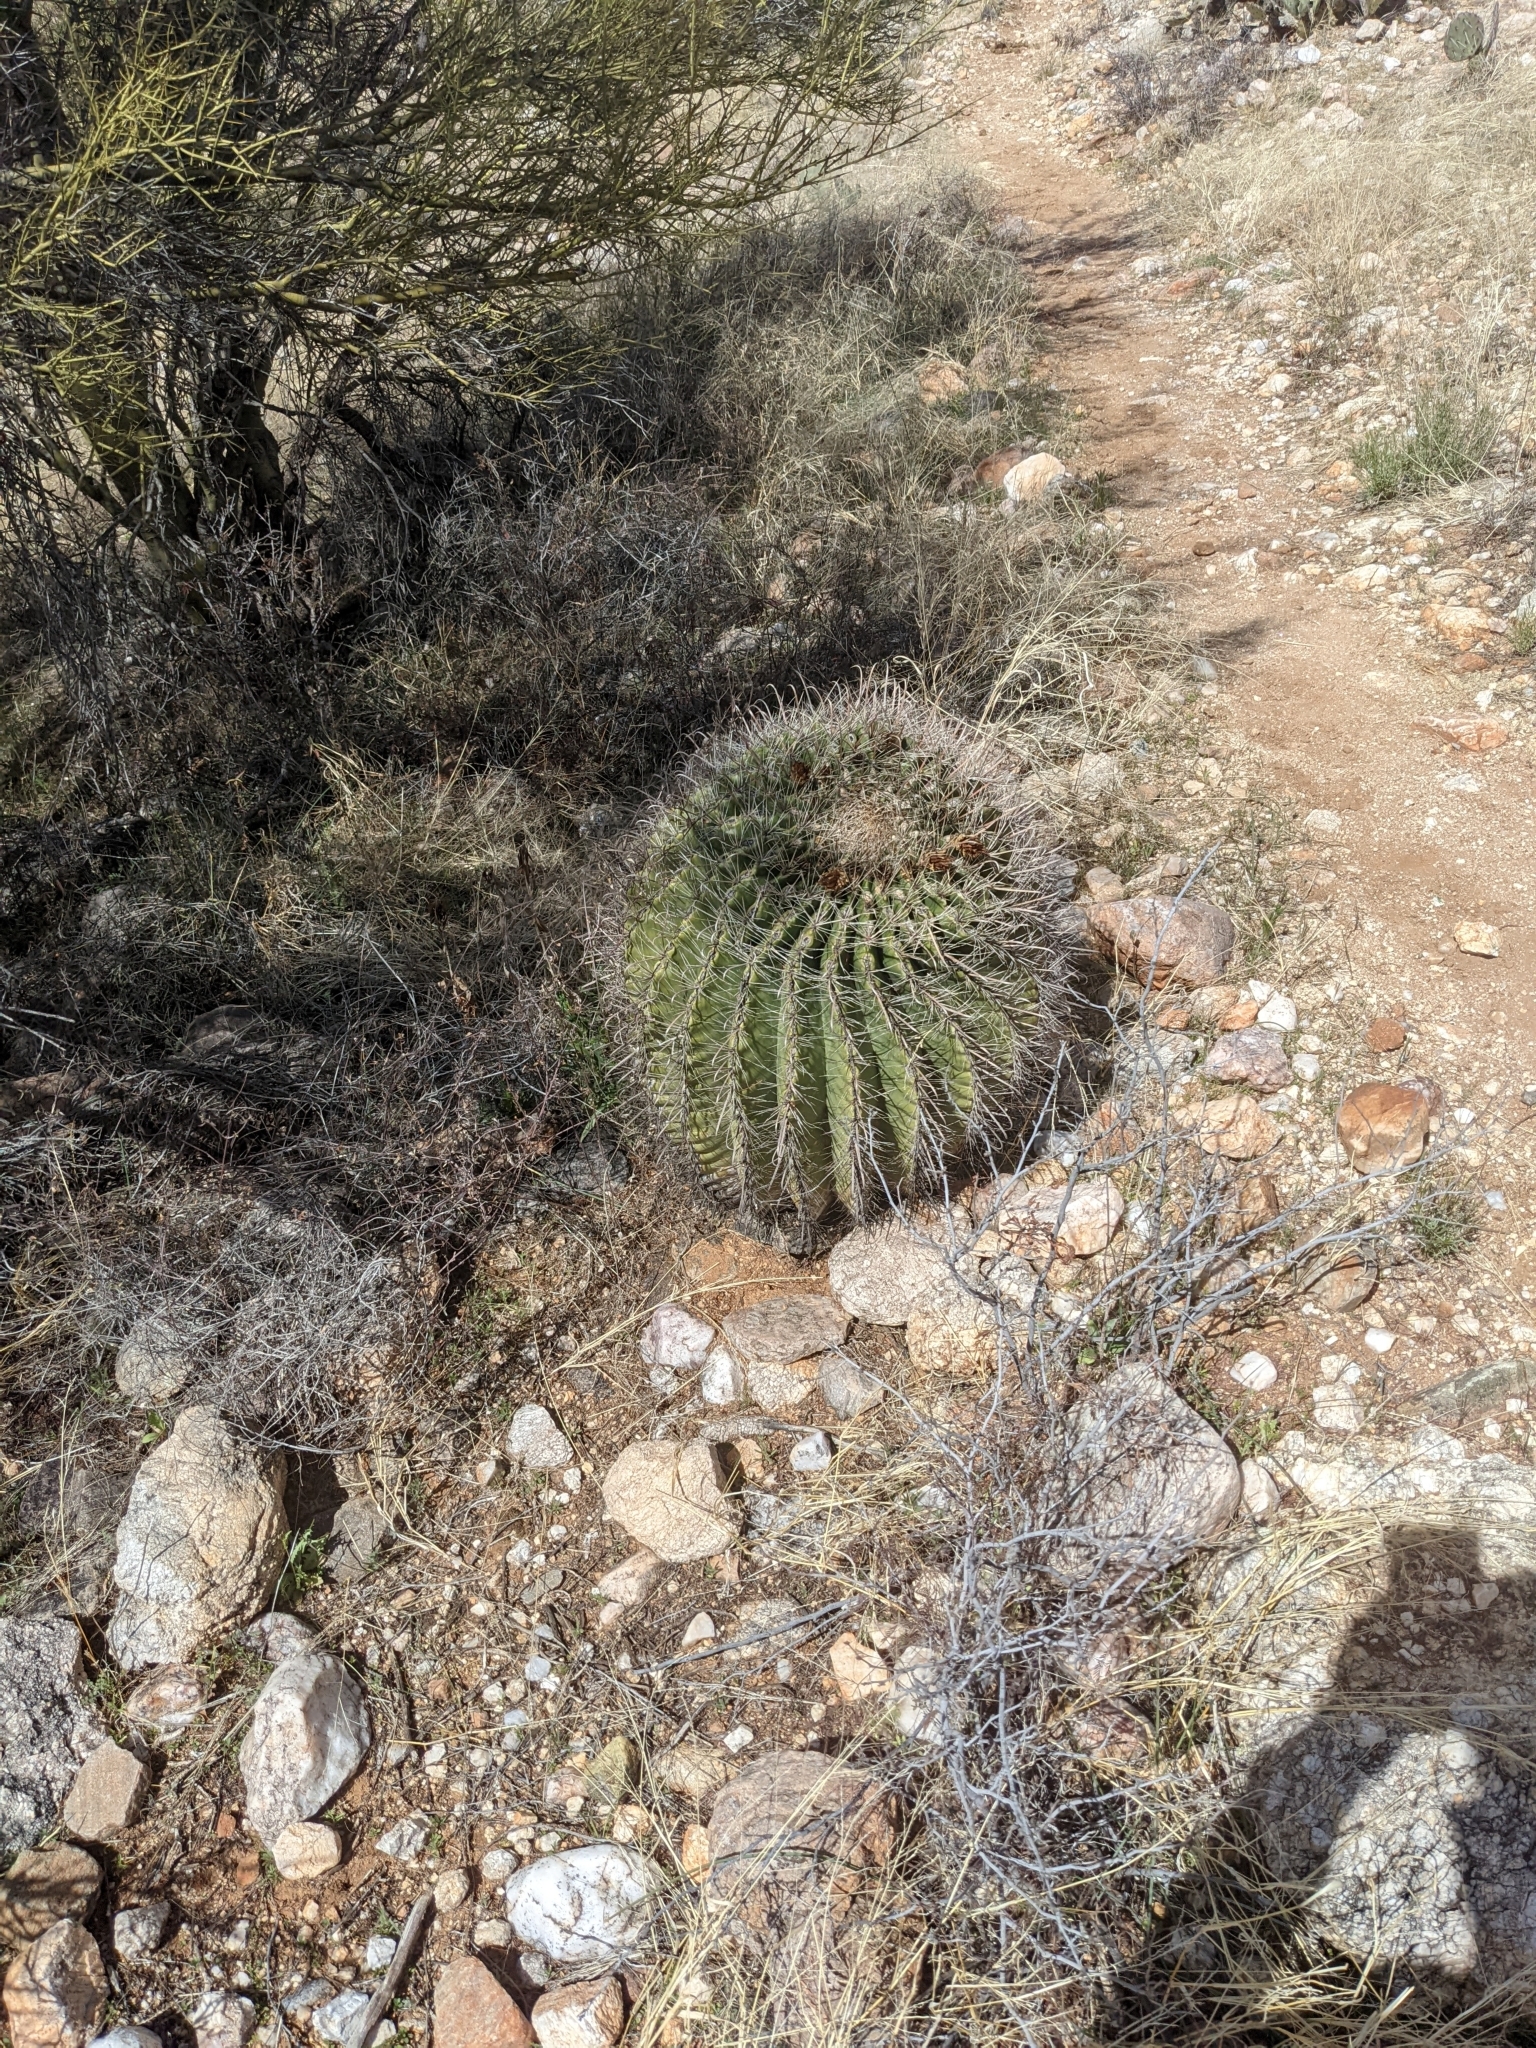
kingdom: Plantae
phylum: Tracheophyta
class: Magnoliopsida
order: Caryophyllales
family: Cactaceae
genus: Ferocactus
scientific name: Ferocactus wislizeni
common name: Candy barrel cactus
